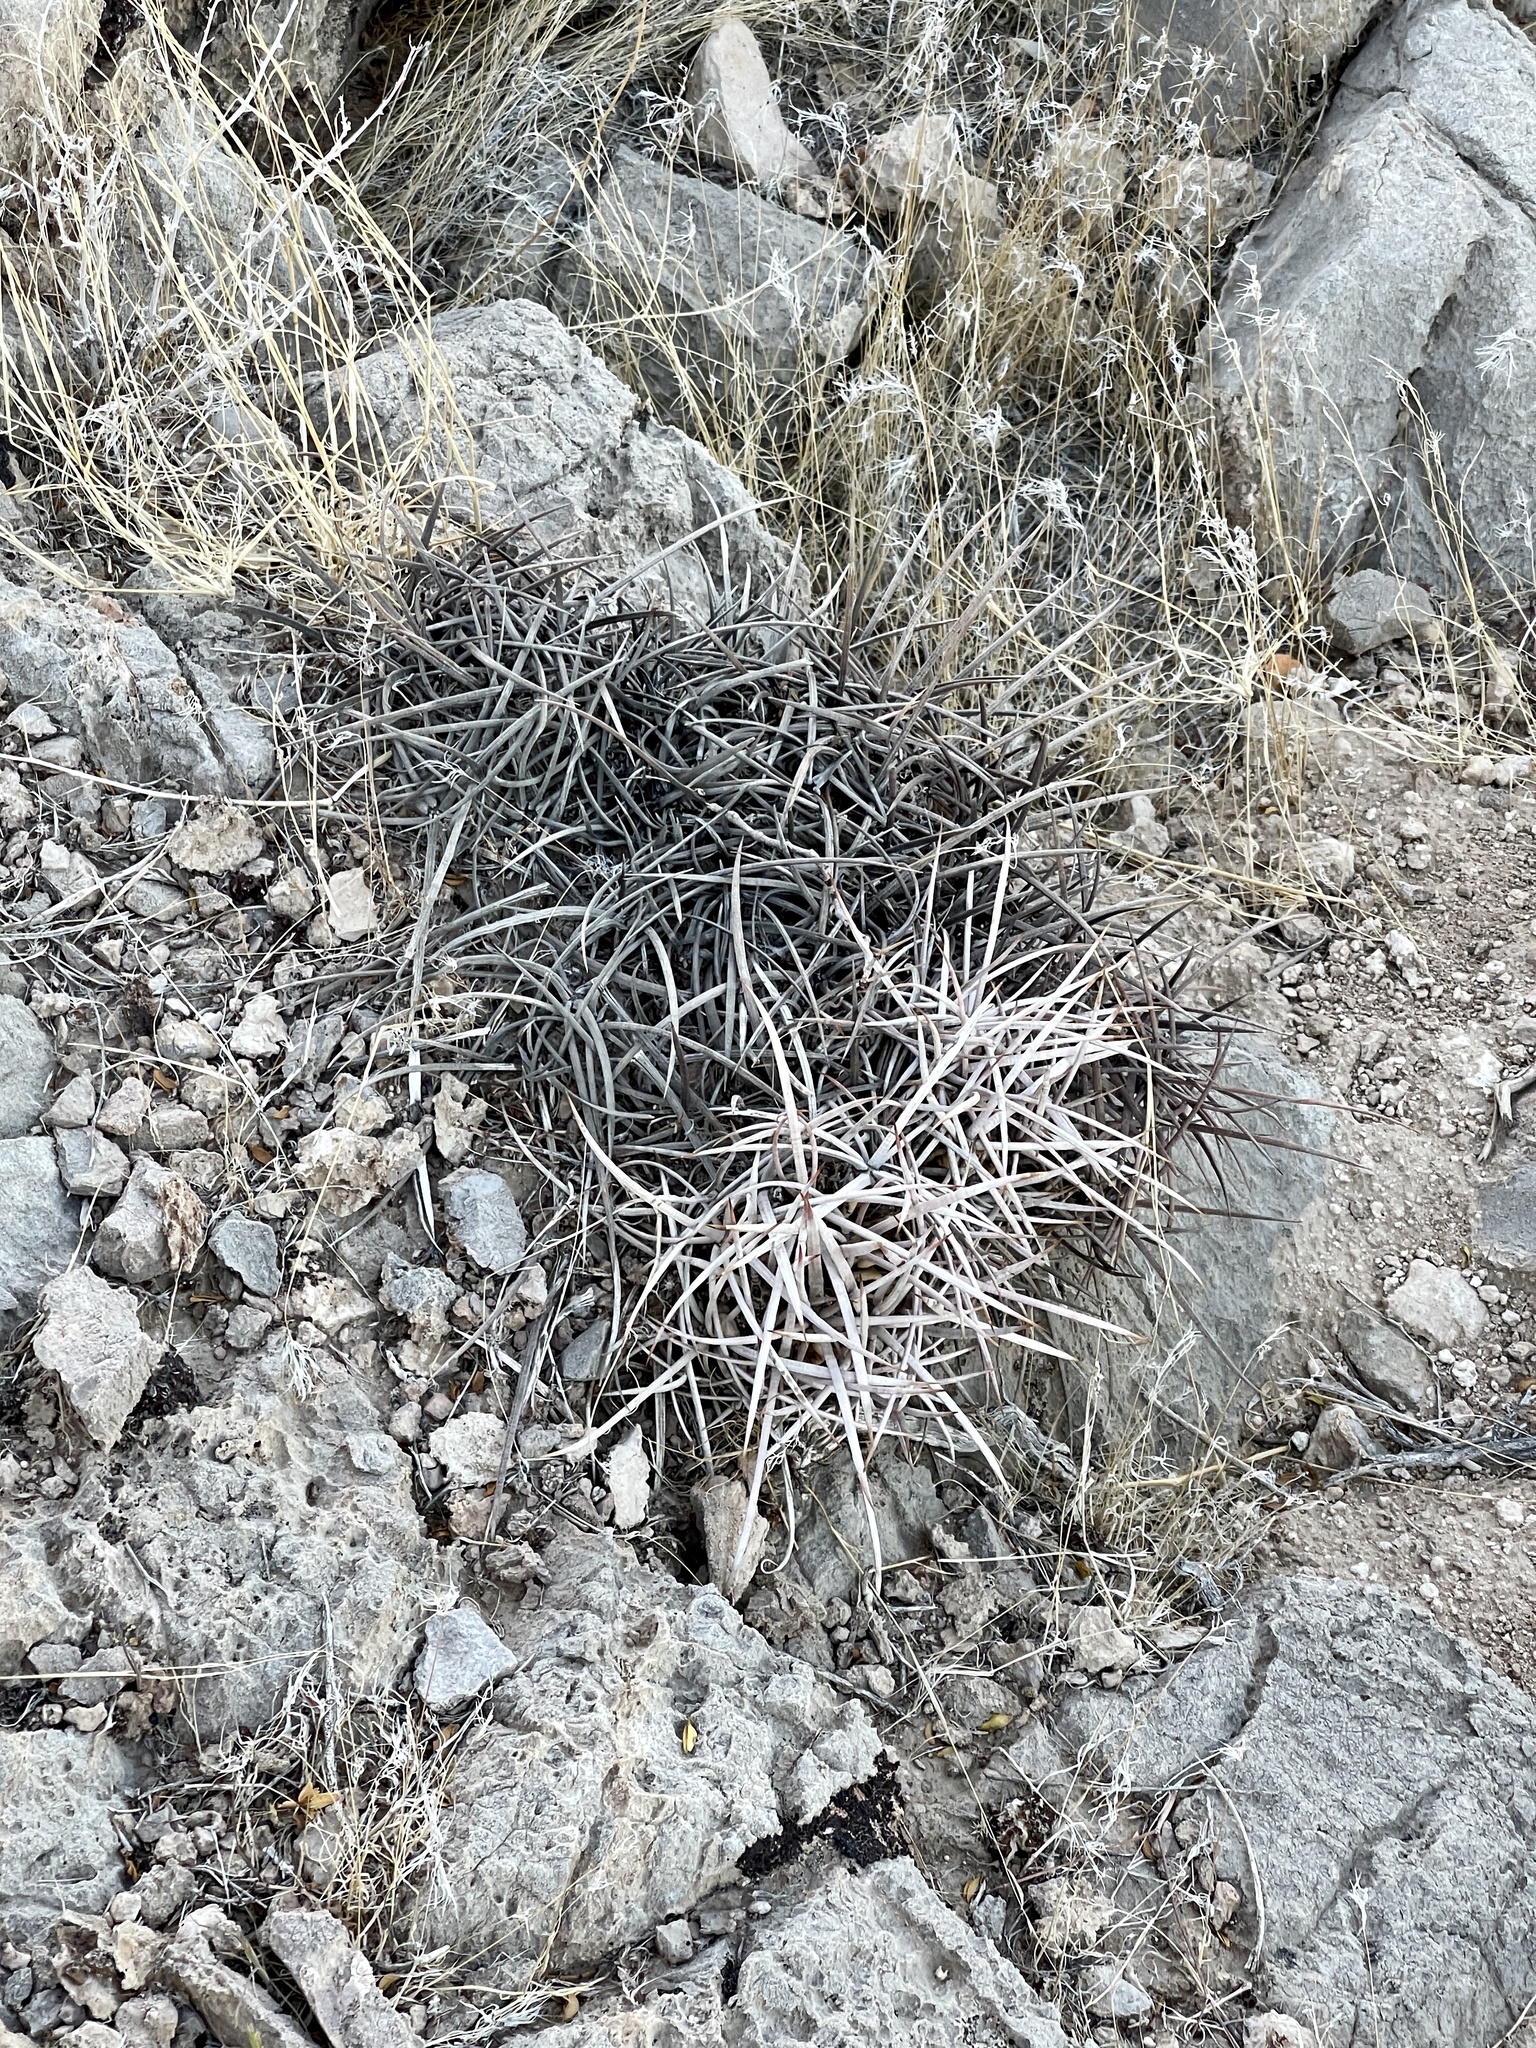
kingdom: Plantae
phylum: Tracheophyta
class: Magnoliopsida
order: Caryophyllales
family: Cactaceae
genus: Echinocactus
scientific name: Echinocactus polycephalus
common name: Cottontop cactus
